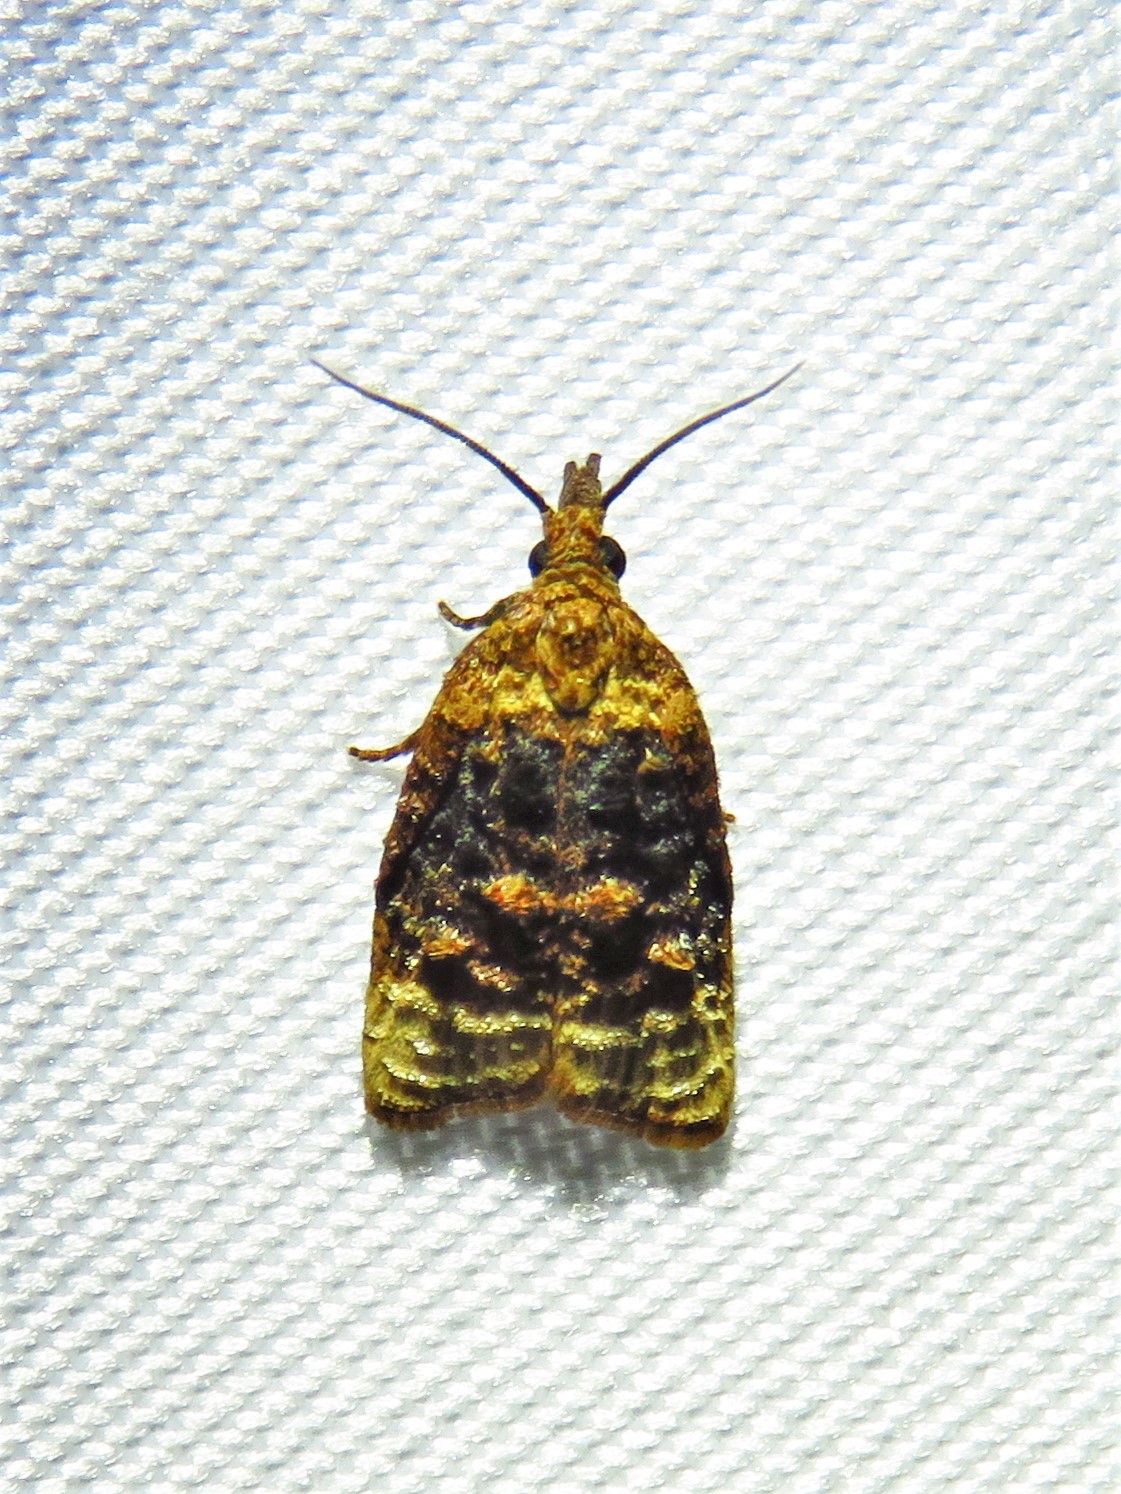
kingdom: Animalia
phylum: Arthropoda
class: Insecta
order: Lepidoptera
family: Tortricidae
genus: Platynota
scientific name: Platynota flavedana
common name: Black-shaded platynota moth
